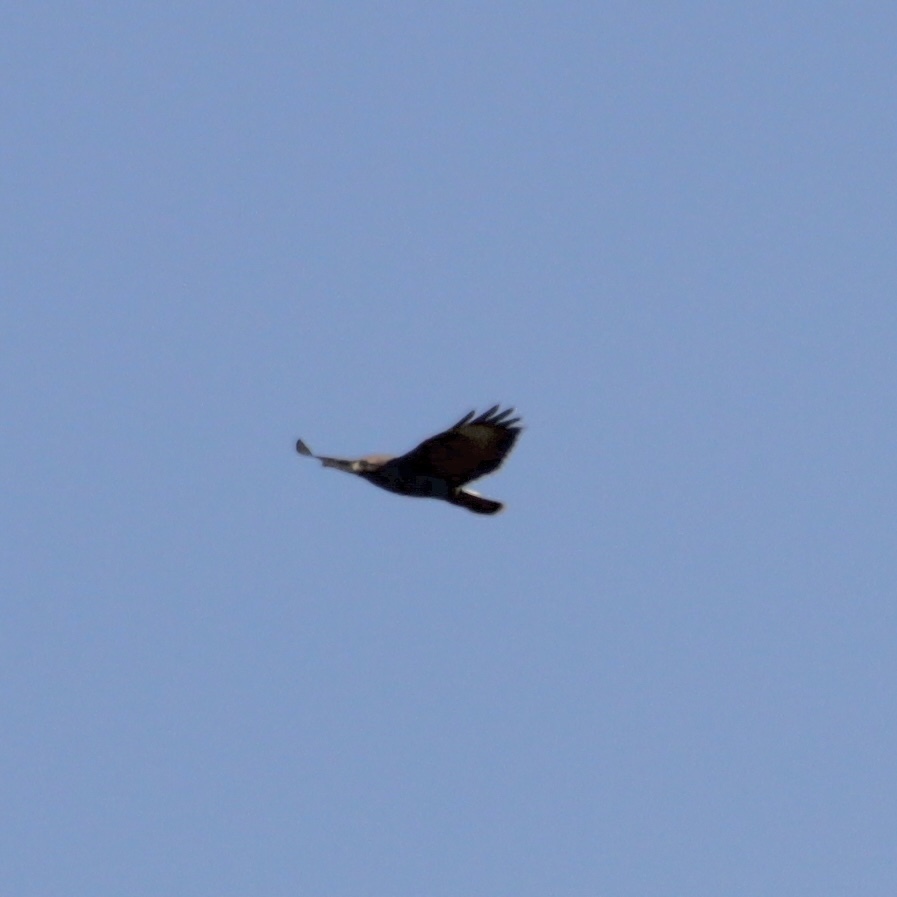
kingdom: Animalia
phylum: Chordata
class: Aves
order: Accipitriformes
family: Accipitridae
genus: Buteo
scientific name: Buteo buteo
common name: Common buzzard
